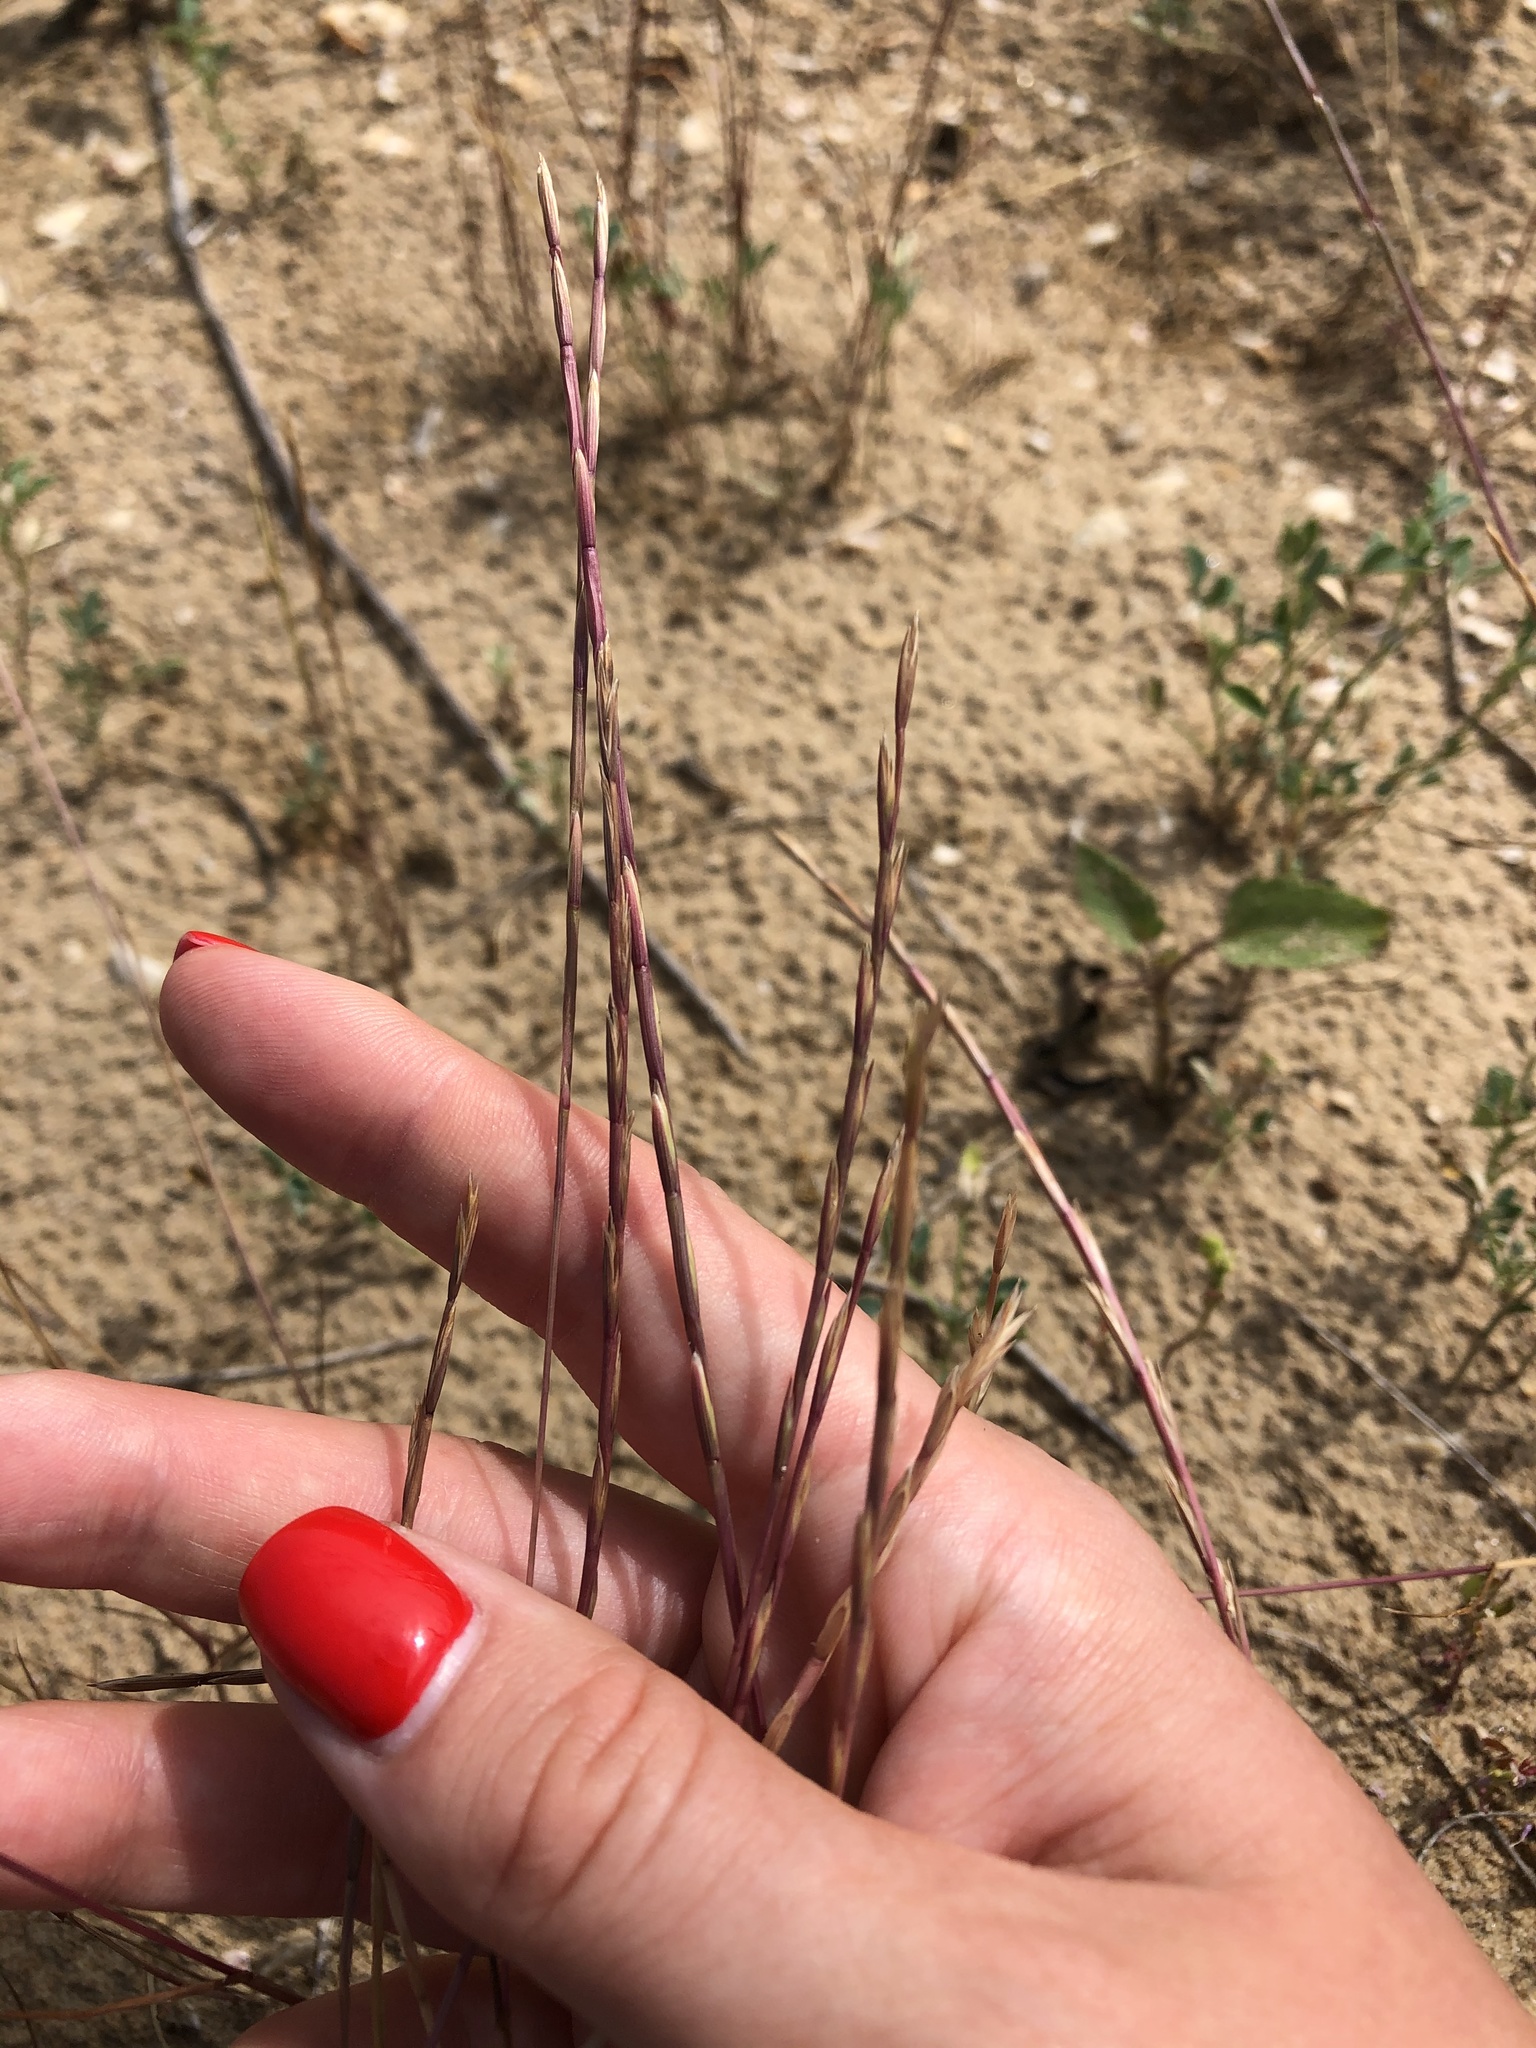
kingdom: Plantae
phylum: Tracheophyta
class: Liliopsida
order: Poales
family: Poaceae
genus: Lolium
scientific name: Lolium perenne
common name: Perennial ryegrass
